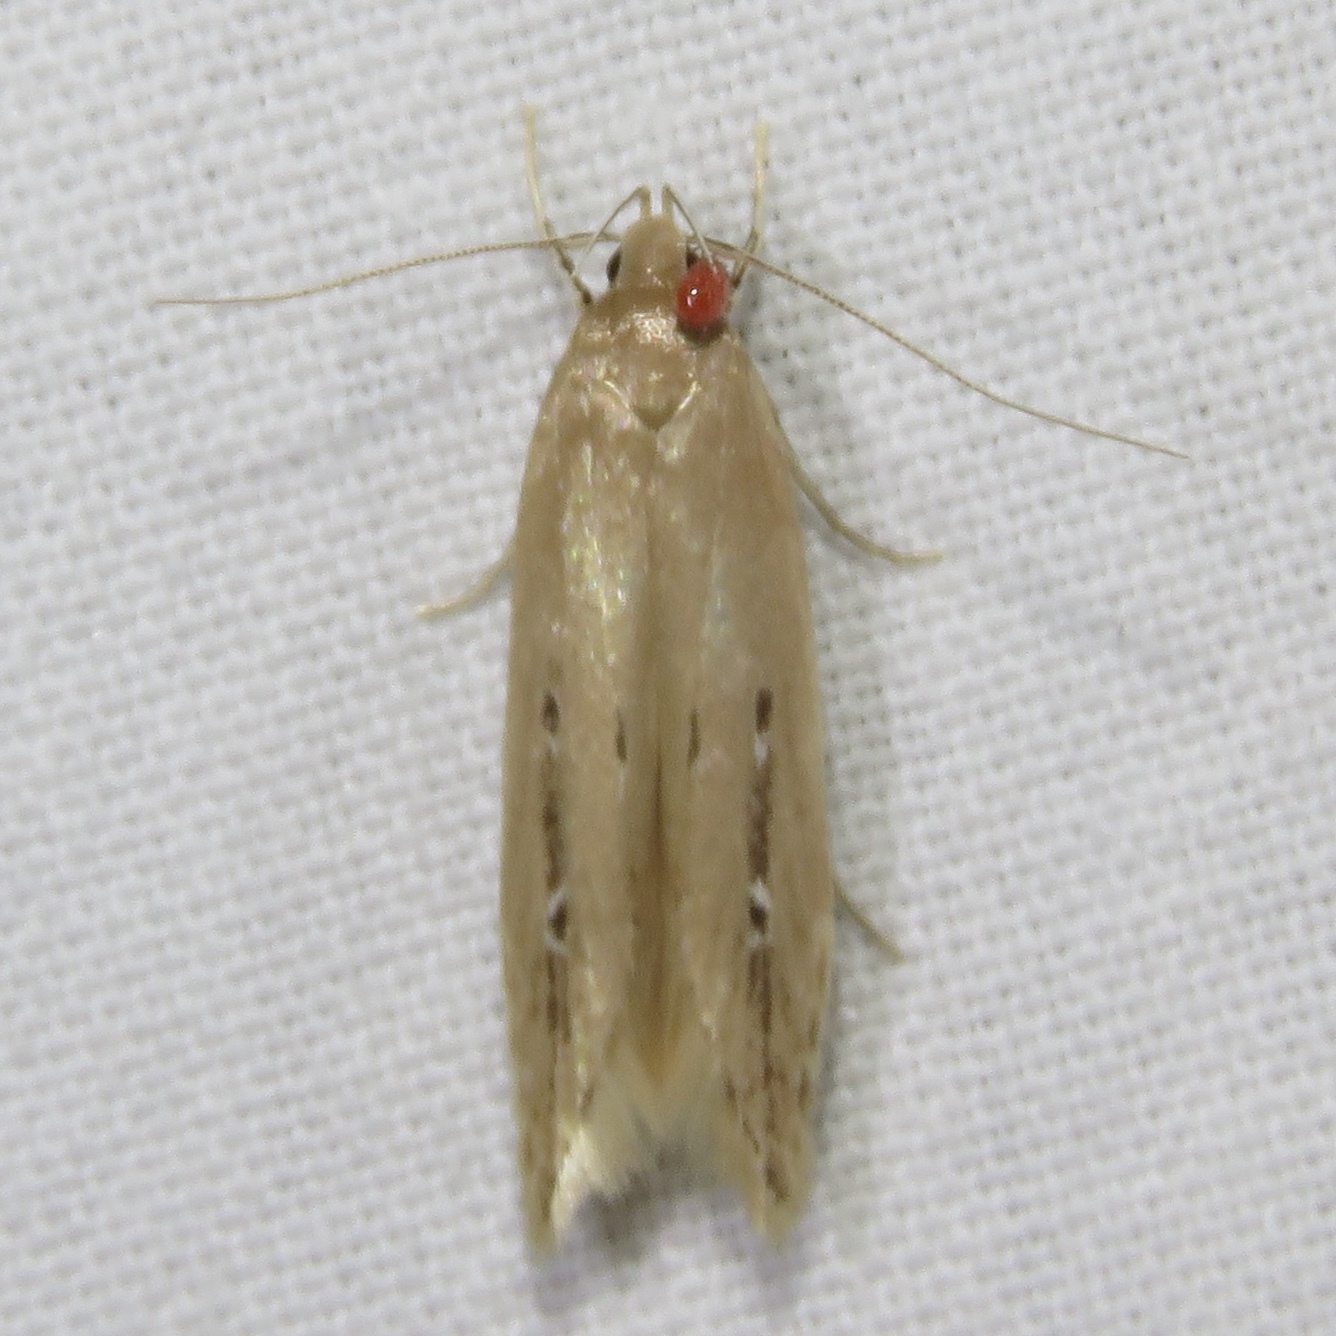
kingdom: Animalia
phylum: Arthropoda
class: Insecta
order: Lepidoptera
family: Cosmopterigidae
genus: Limnaecia
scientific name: Limnaecia phragmitella
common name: Bulrush cosmet
